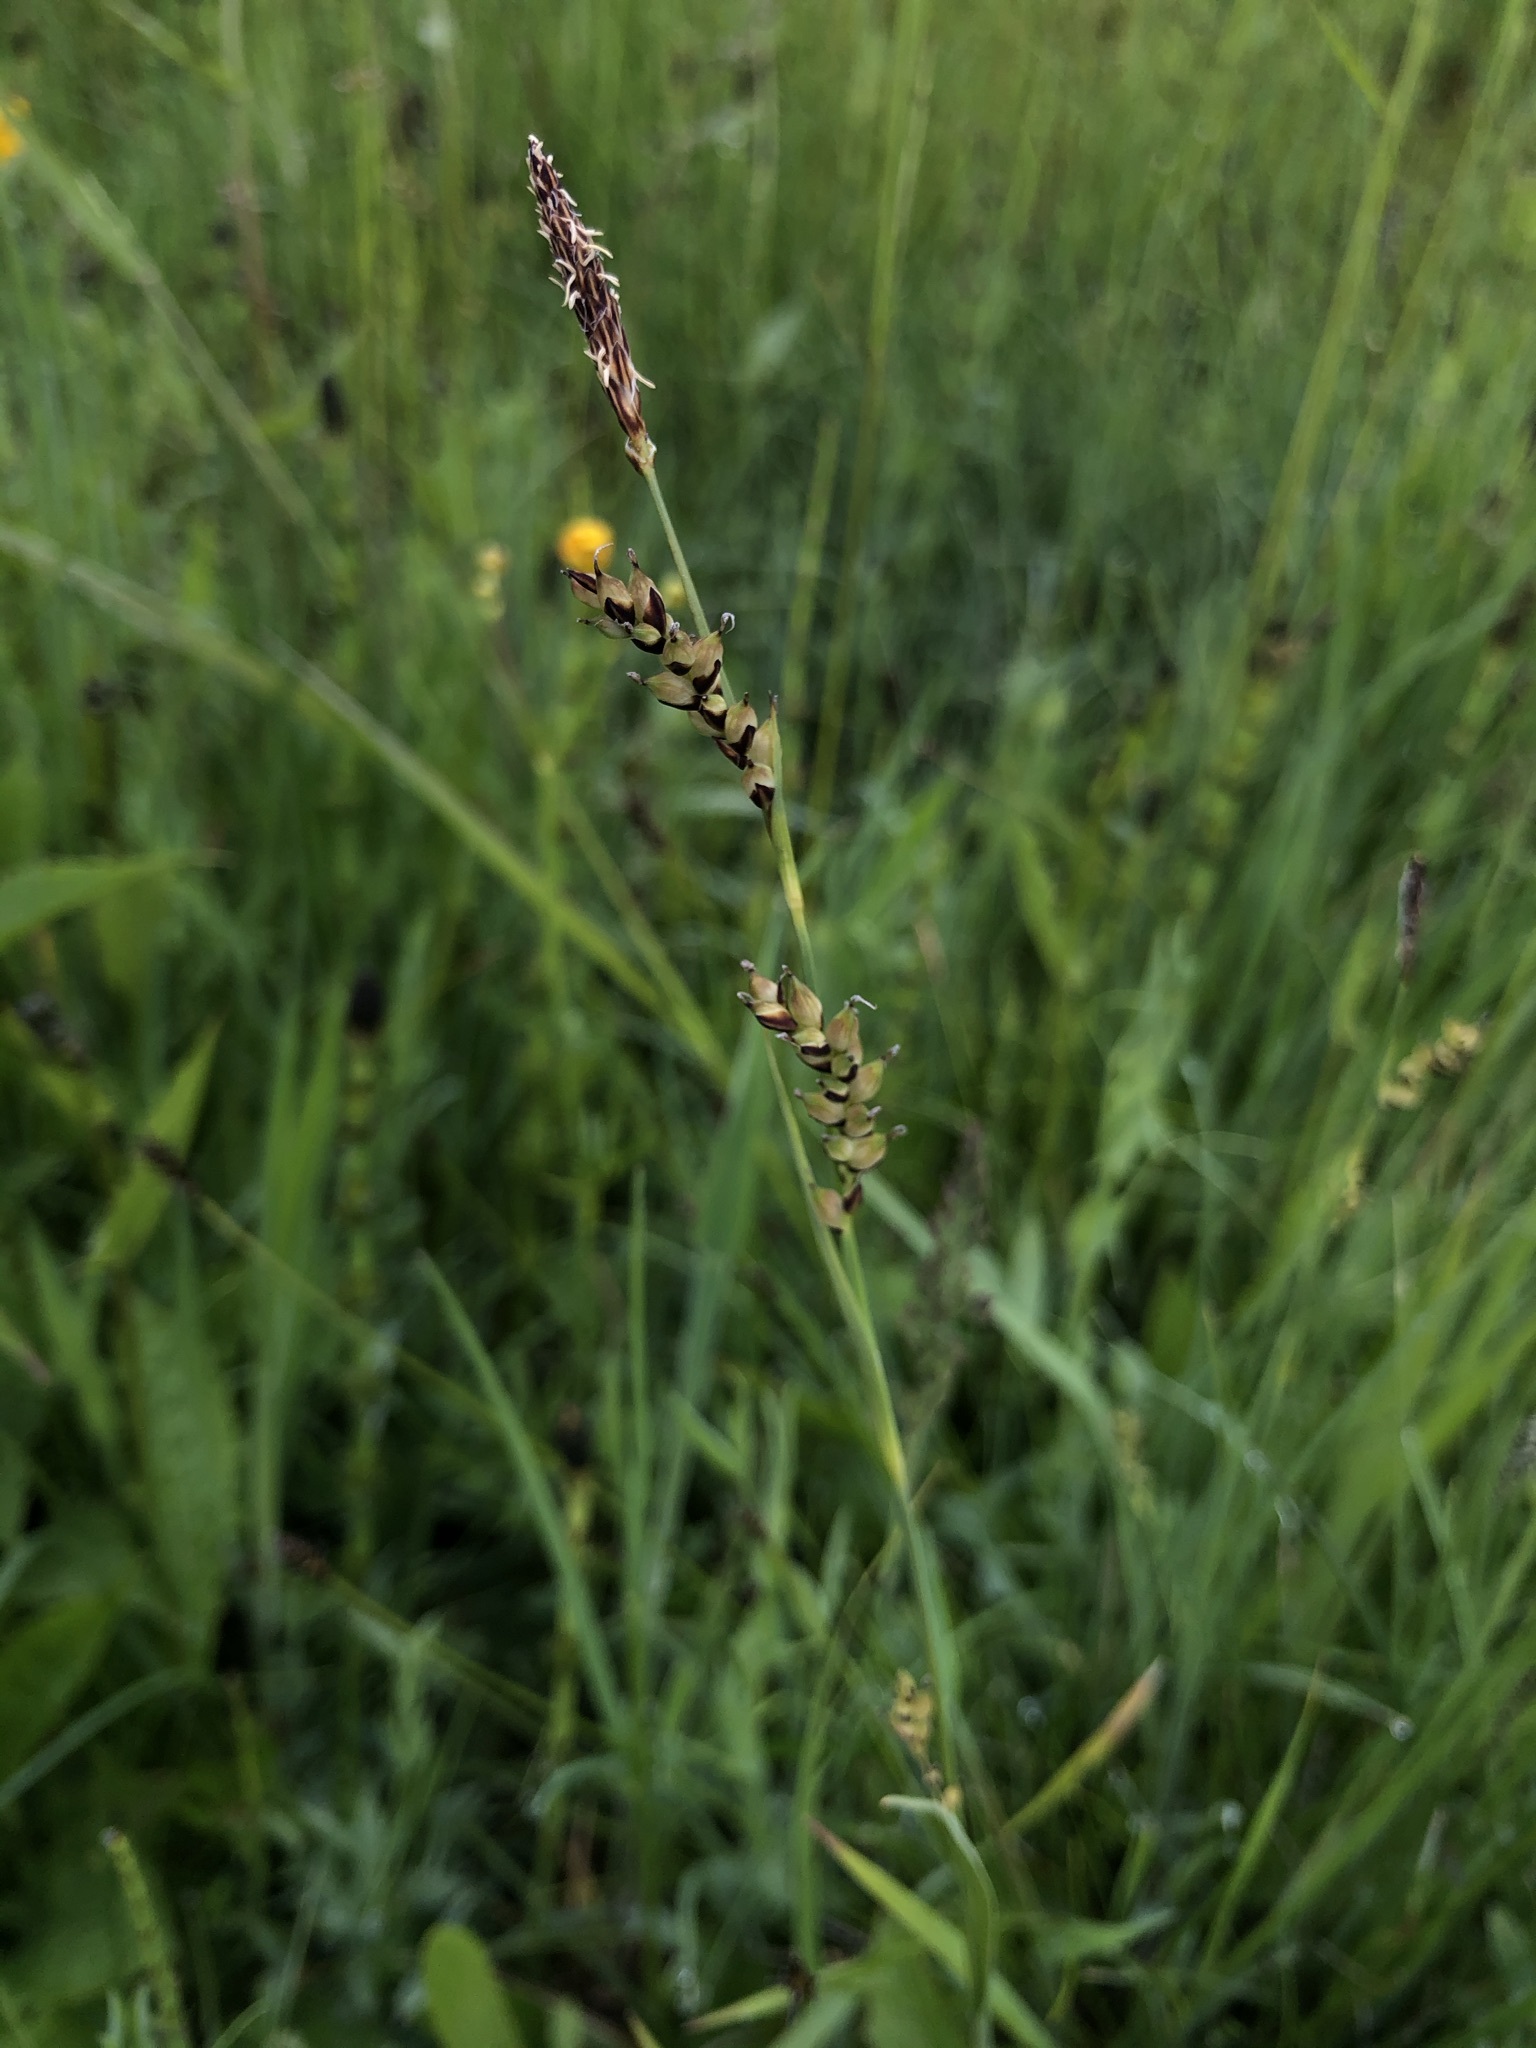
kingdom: Plantae
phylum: Tracheophyta
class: Liliopsida
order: Poales
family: Cyperaceae
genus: Carex
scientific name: Carex panicea
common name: Carnation sedge
